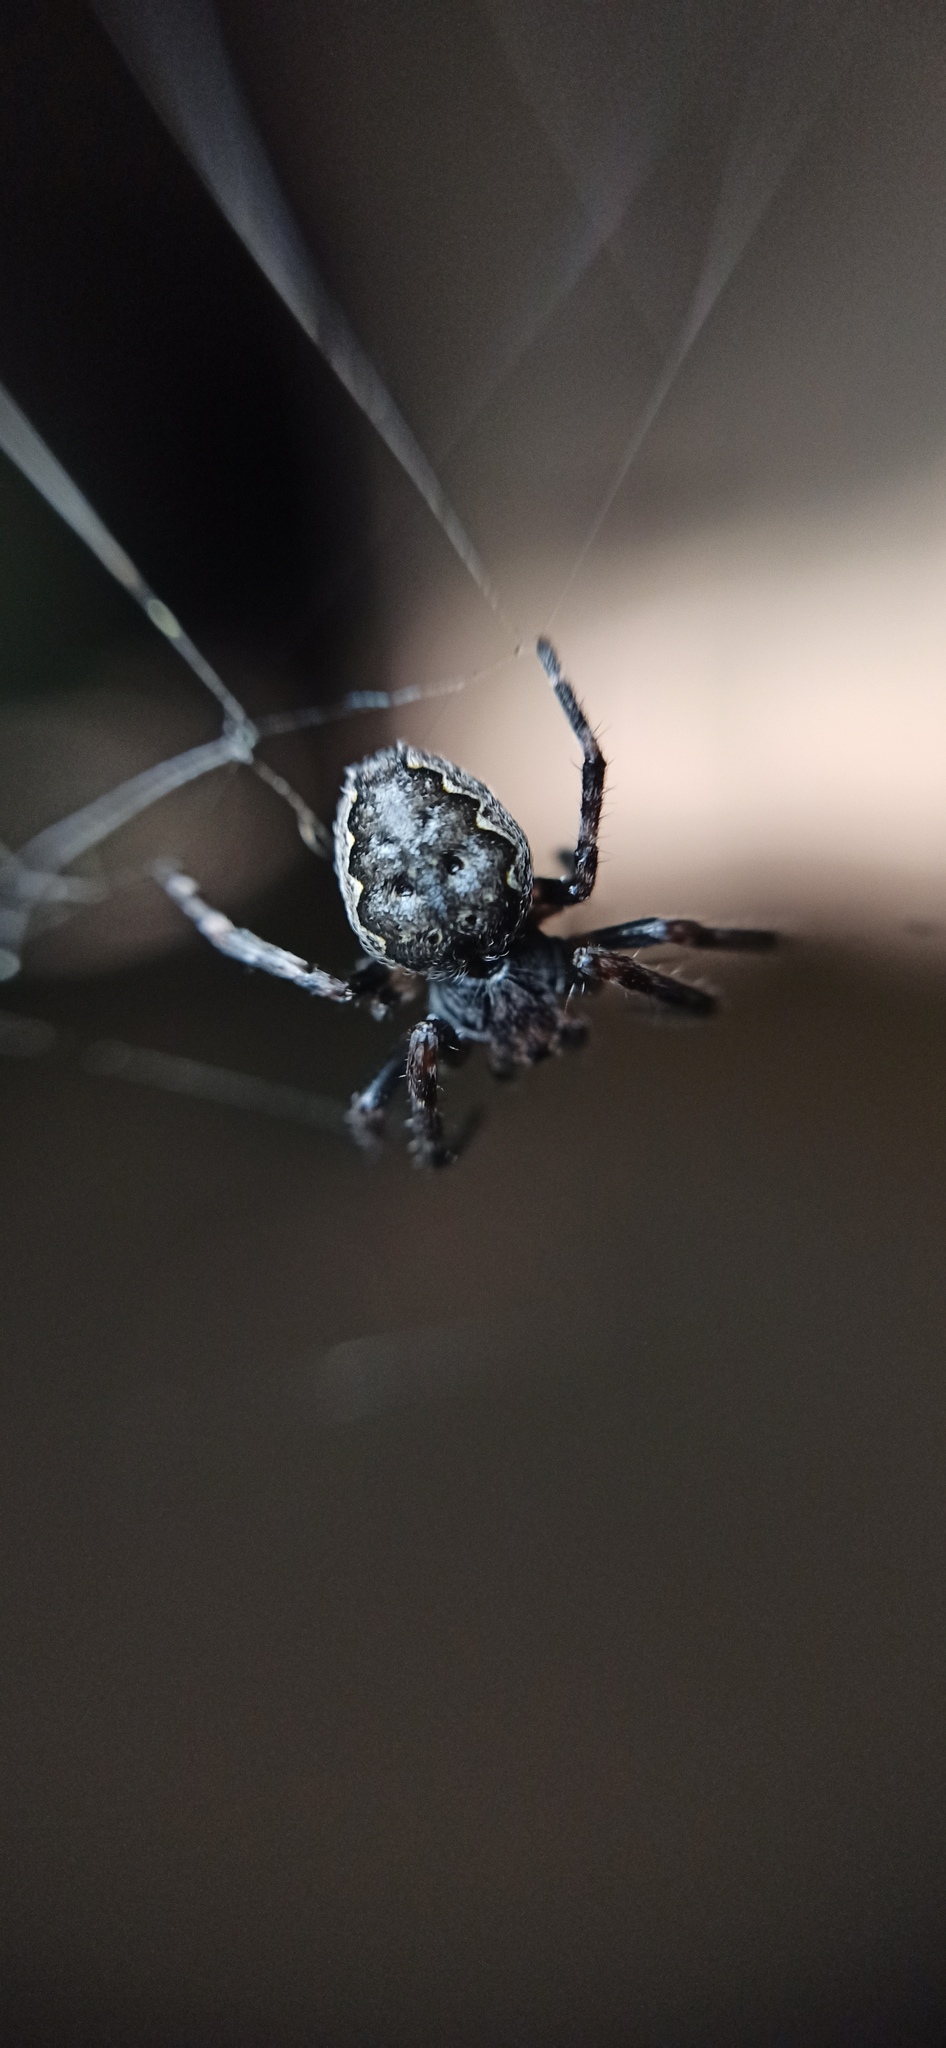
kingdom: Animalia
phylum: Arthropoda
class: Arachnida
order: Araneae
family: Araneidae
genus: Nuctenea
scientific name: Nuctenea umbratica
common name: Toad spider
